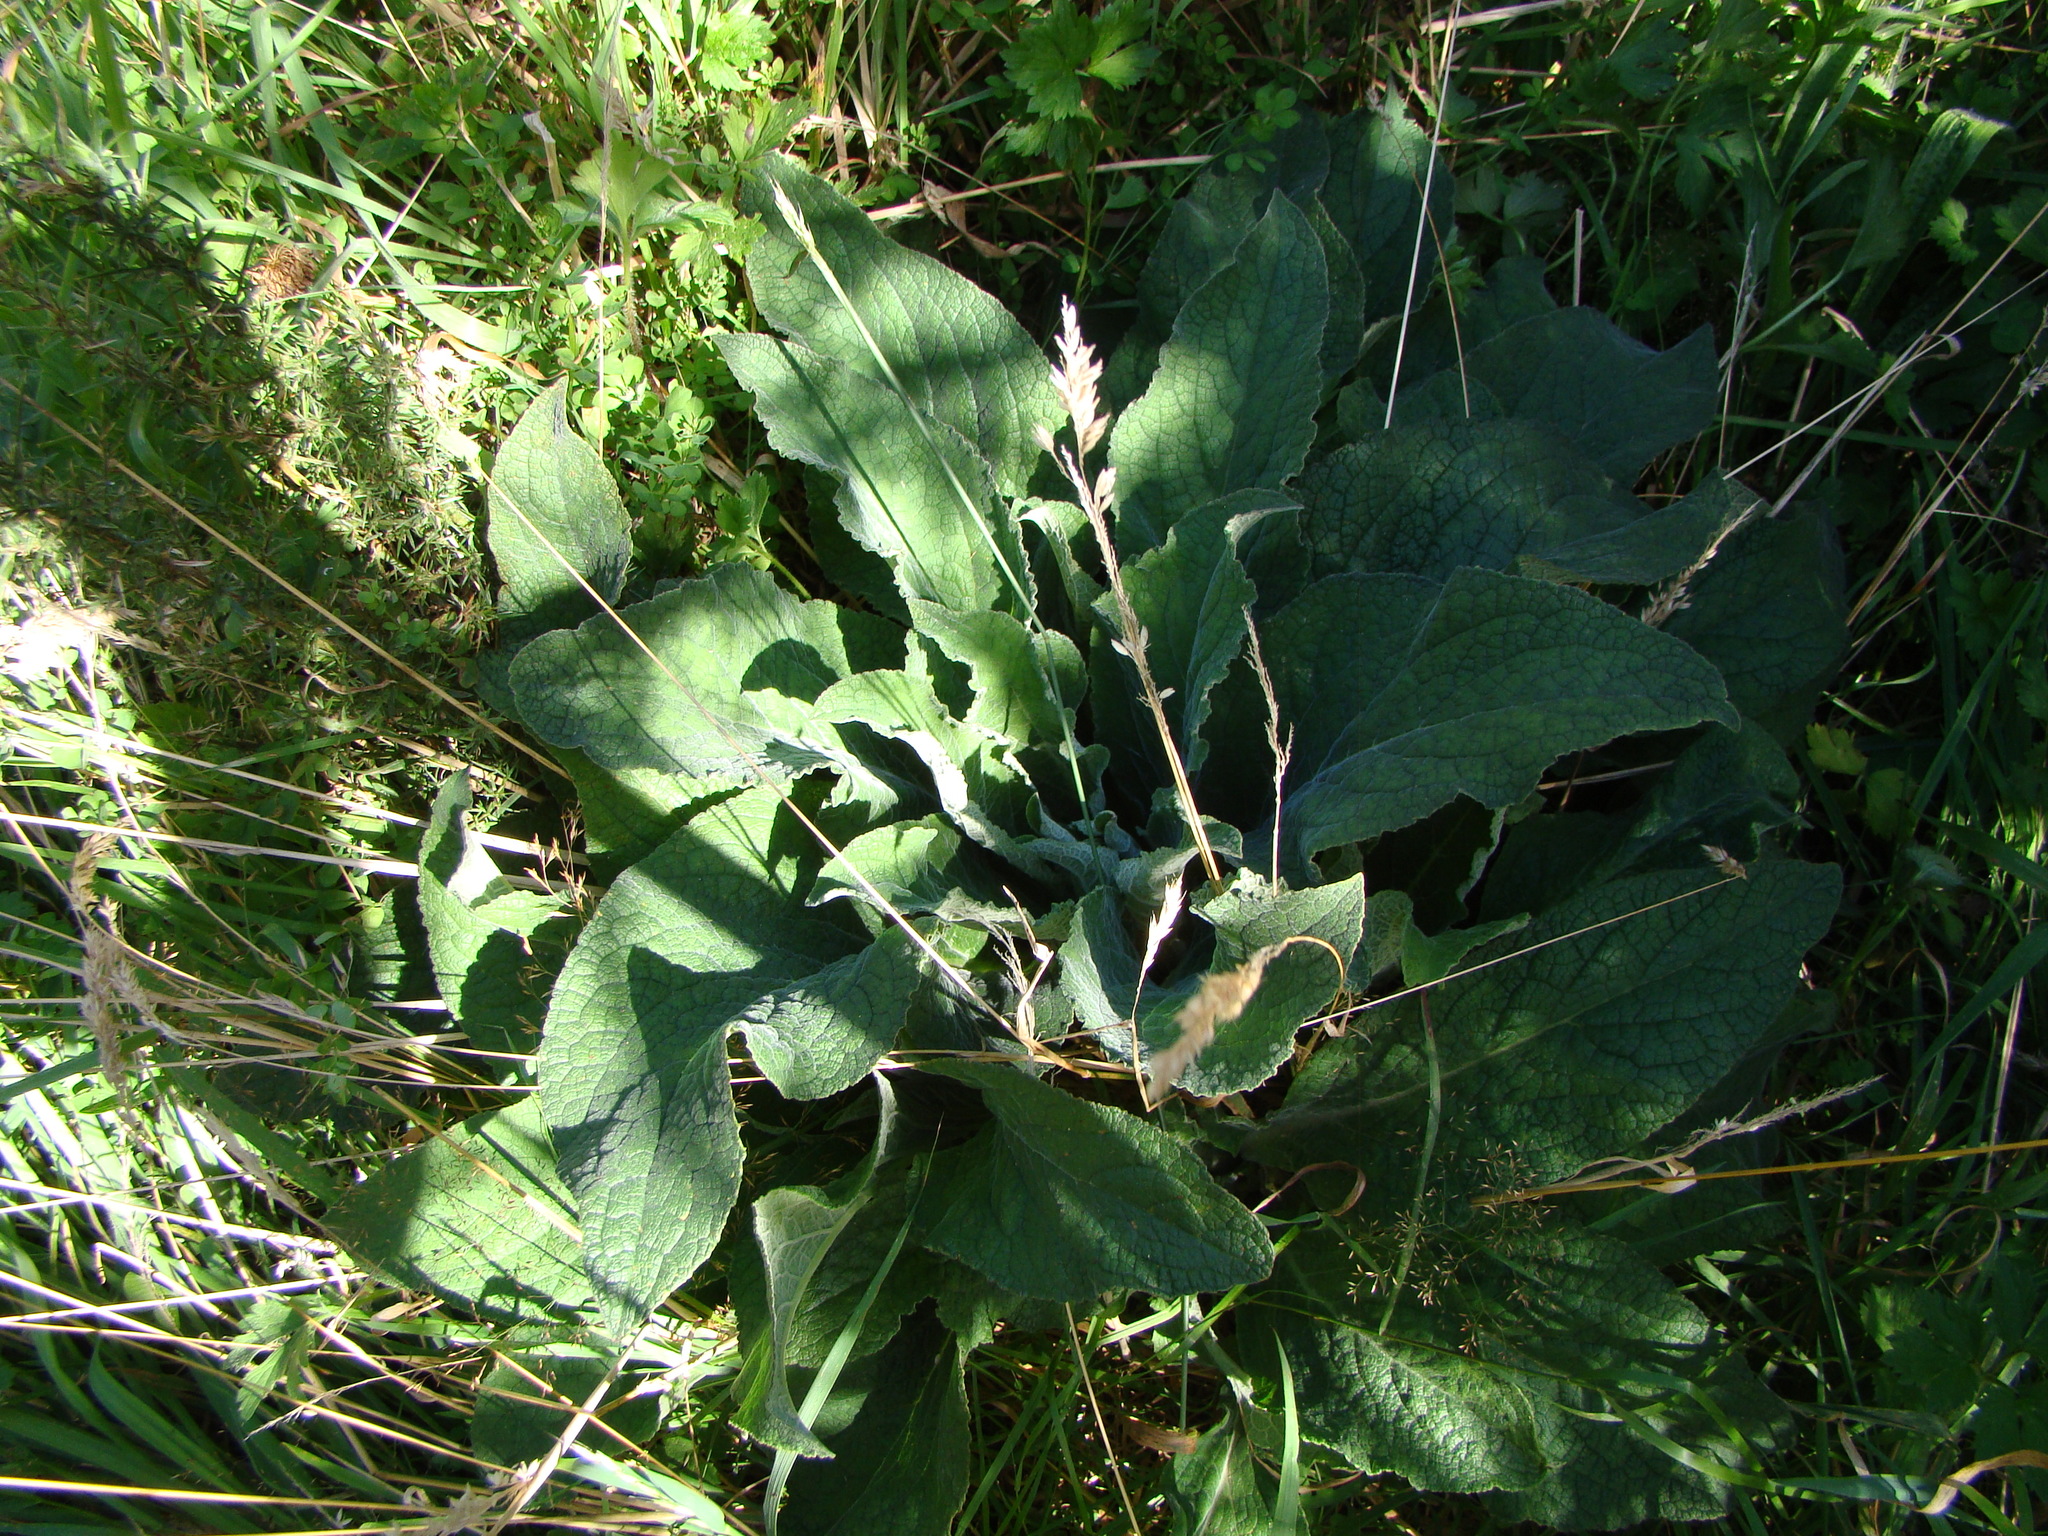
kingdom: Plantae
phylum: Tracheophyta
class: Magnoliopsida
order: Lamiales
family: Plantaginaceae
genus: Digitalis
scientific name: Digitalis purpurea
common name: Foxglove
